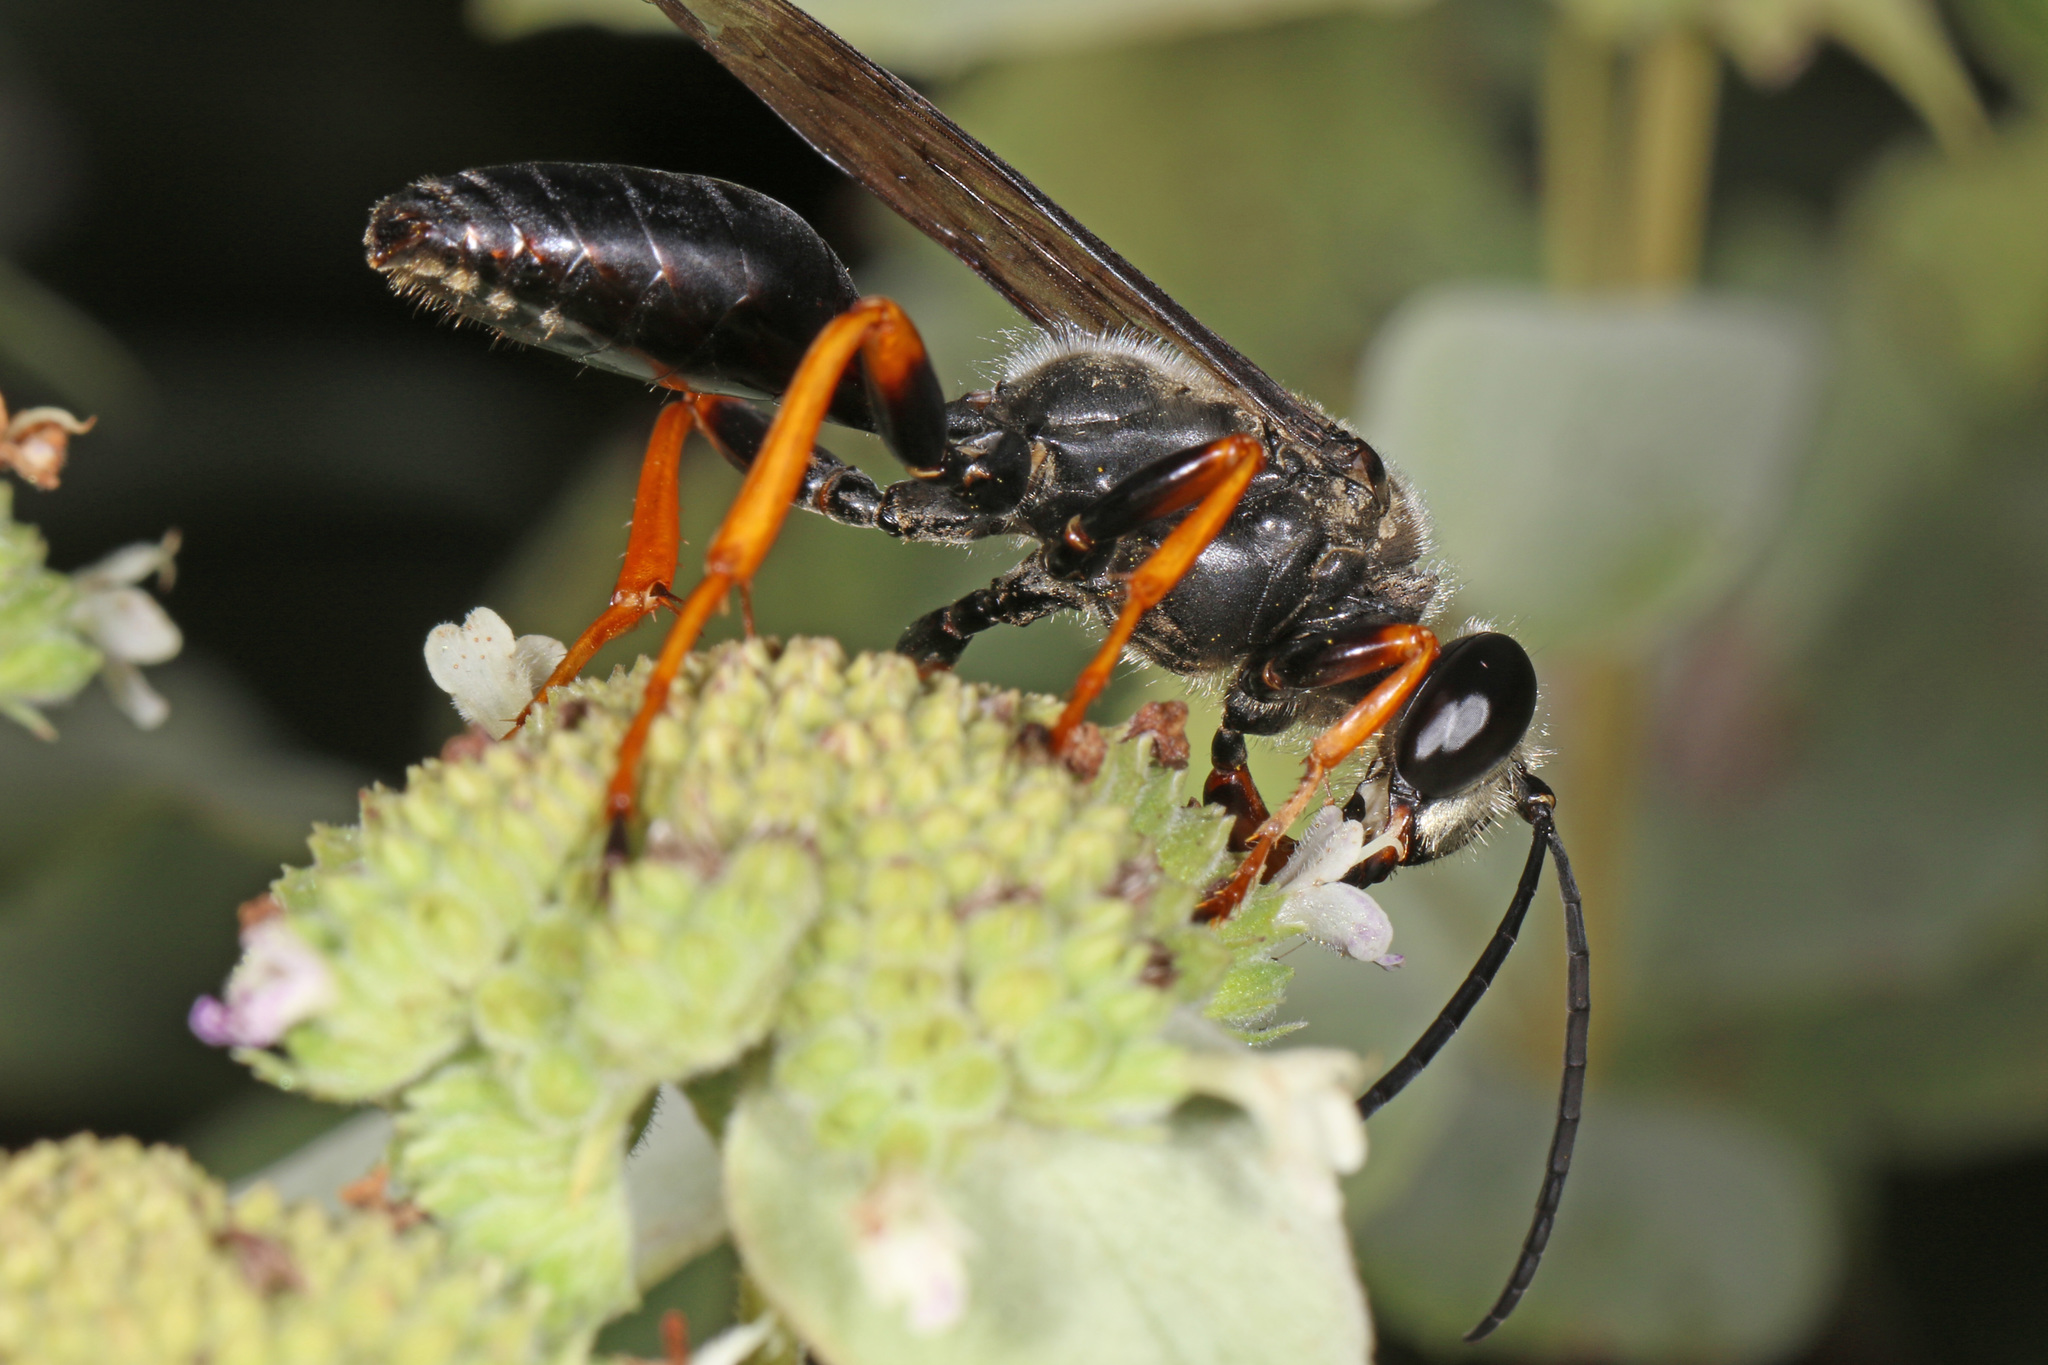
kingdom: Animalia
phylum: Arthropoda
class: Insecta
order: Hymenoptera
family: Sphecidae
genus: Sphex
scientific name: Sphex nudus
